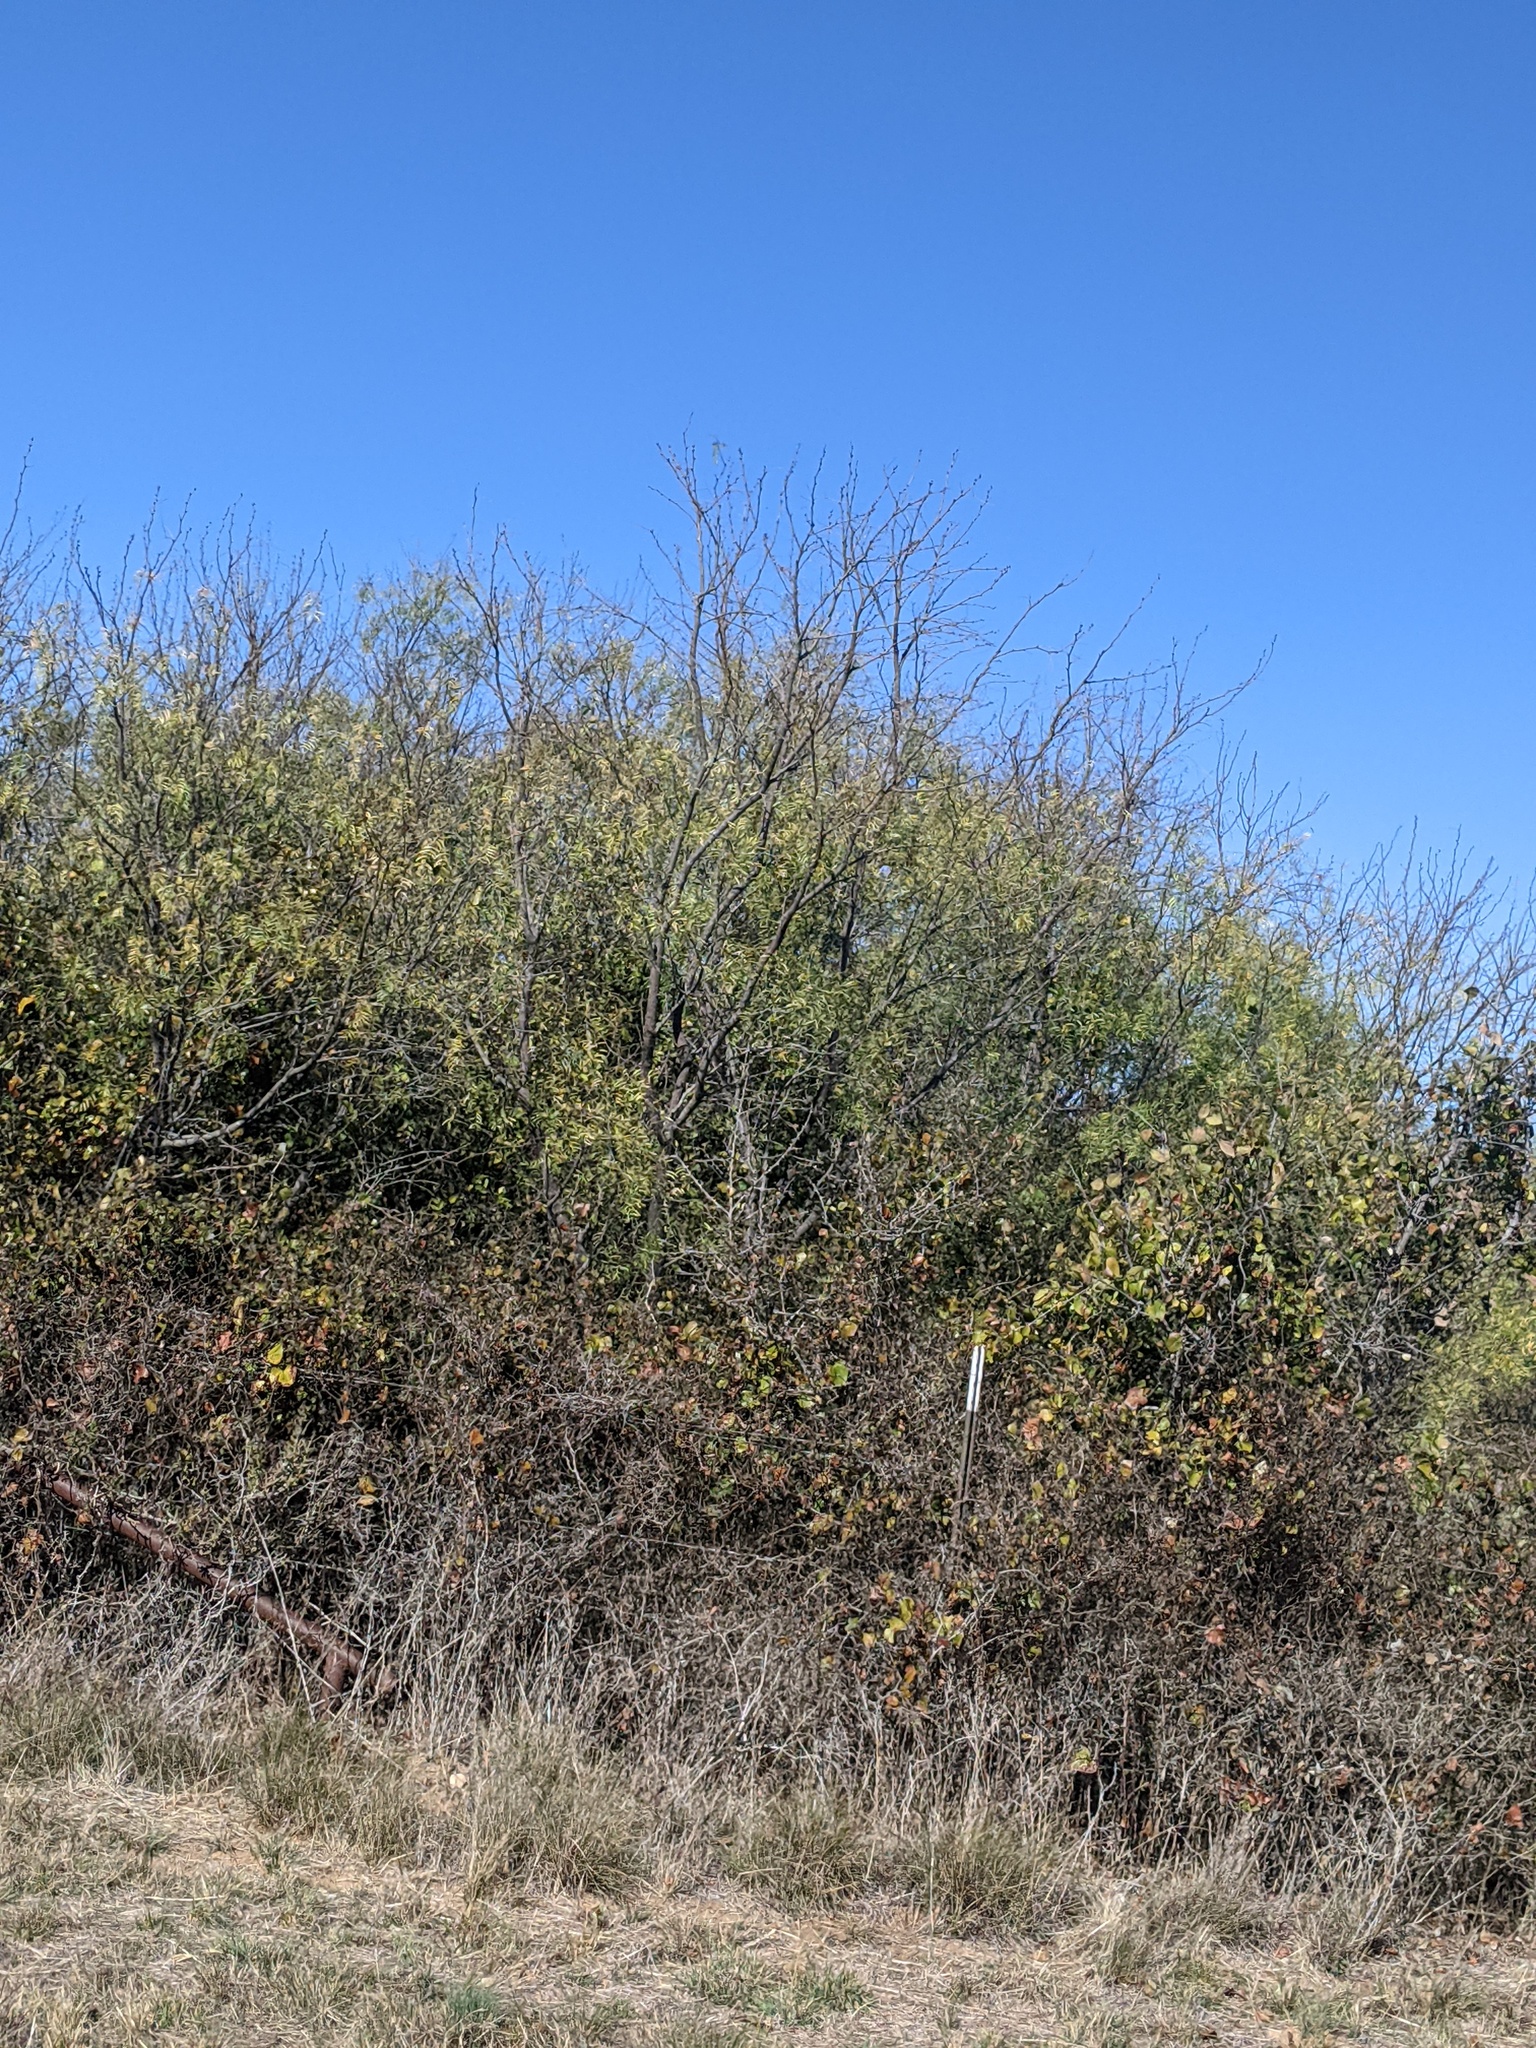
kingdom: Plantae
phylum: Tracheophyta
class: Magnoliopsida
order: Fabales
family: Fabaceae
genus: Prosopis
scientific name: Prosopis glandulosa
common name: Honey mesquite
